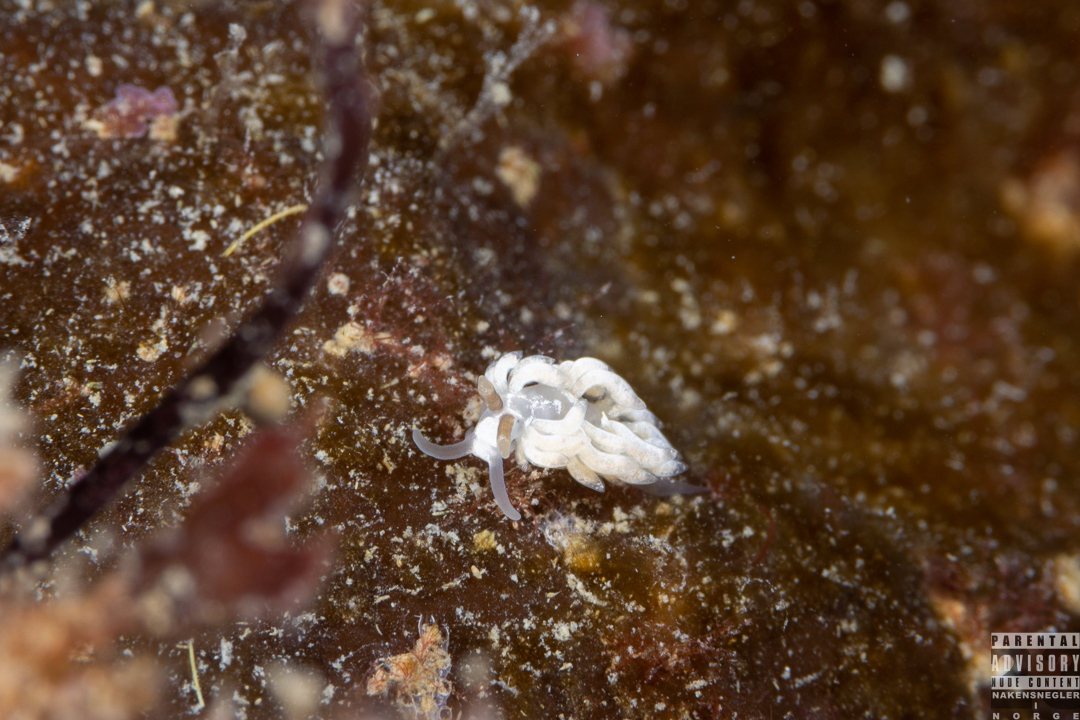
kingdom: Animalia
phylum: Mollusca
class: Gastropoda
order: Nudibranchia
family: Facelinidae
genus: Favorinus
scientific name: Favorinus branchialis
